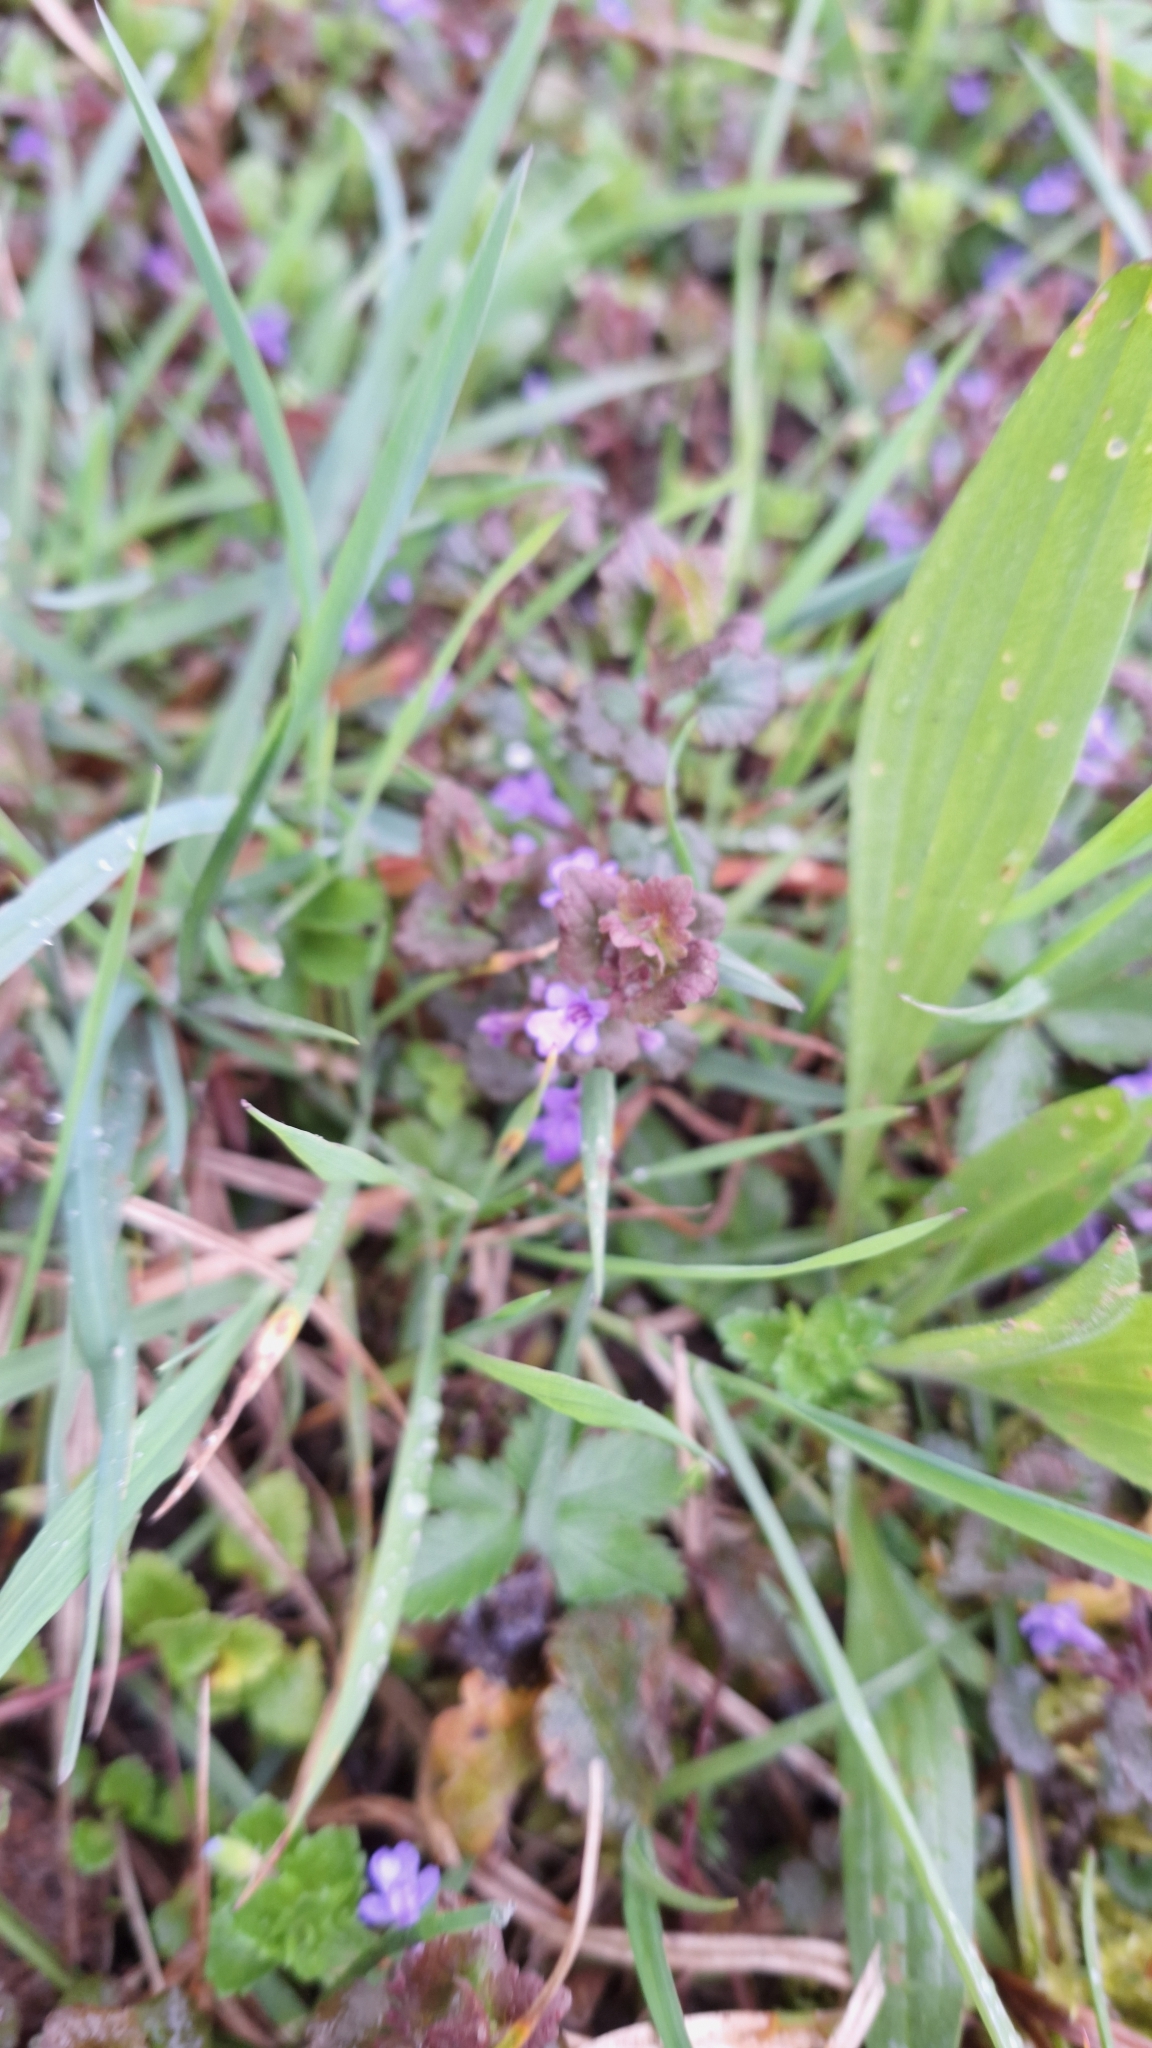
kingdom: Plantae
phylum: Tracheophyta
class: Magnoliopsida
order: Lamiales
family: Lamiaceae
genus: Glechoma
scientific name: Glechoma hederacea
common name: Ground ivy
